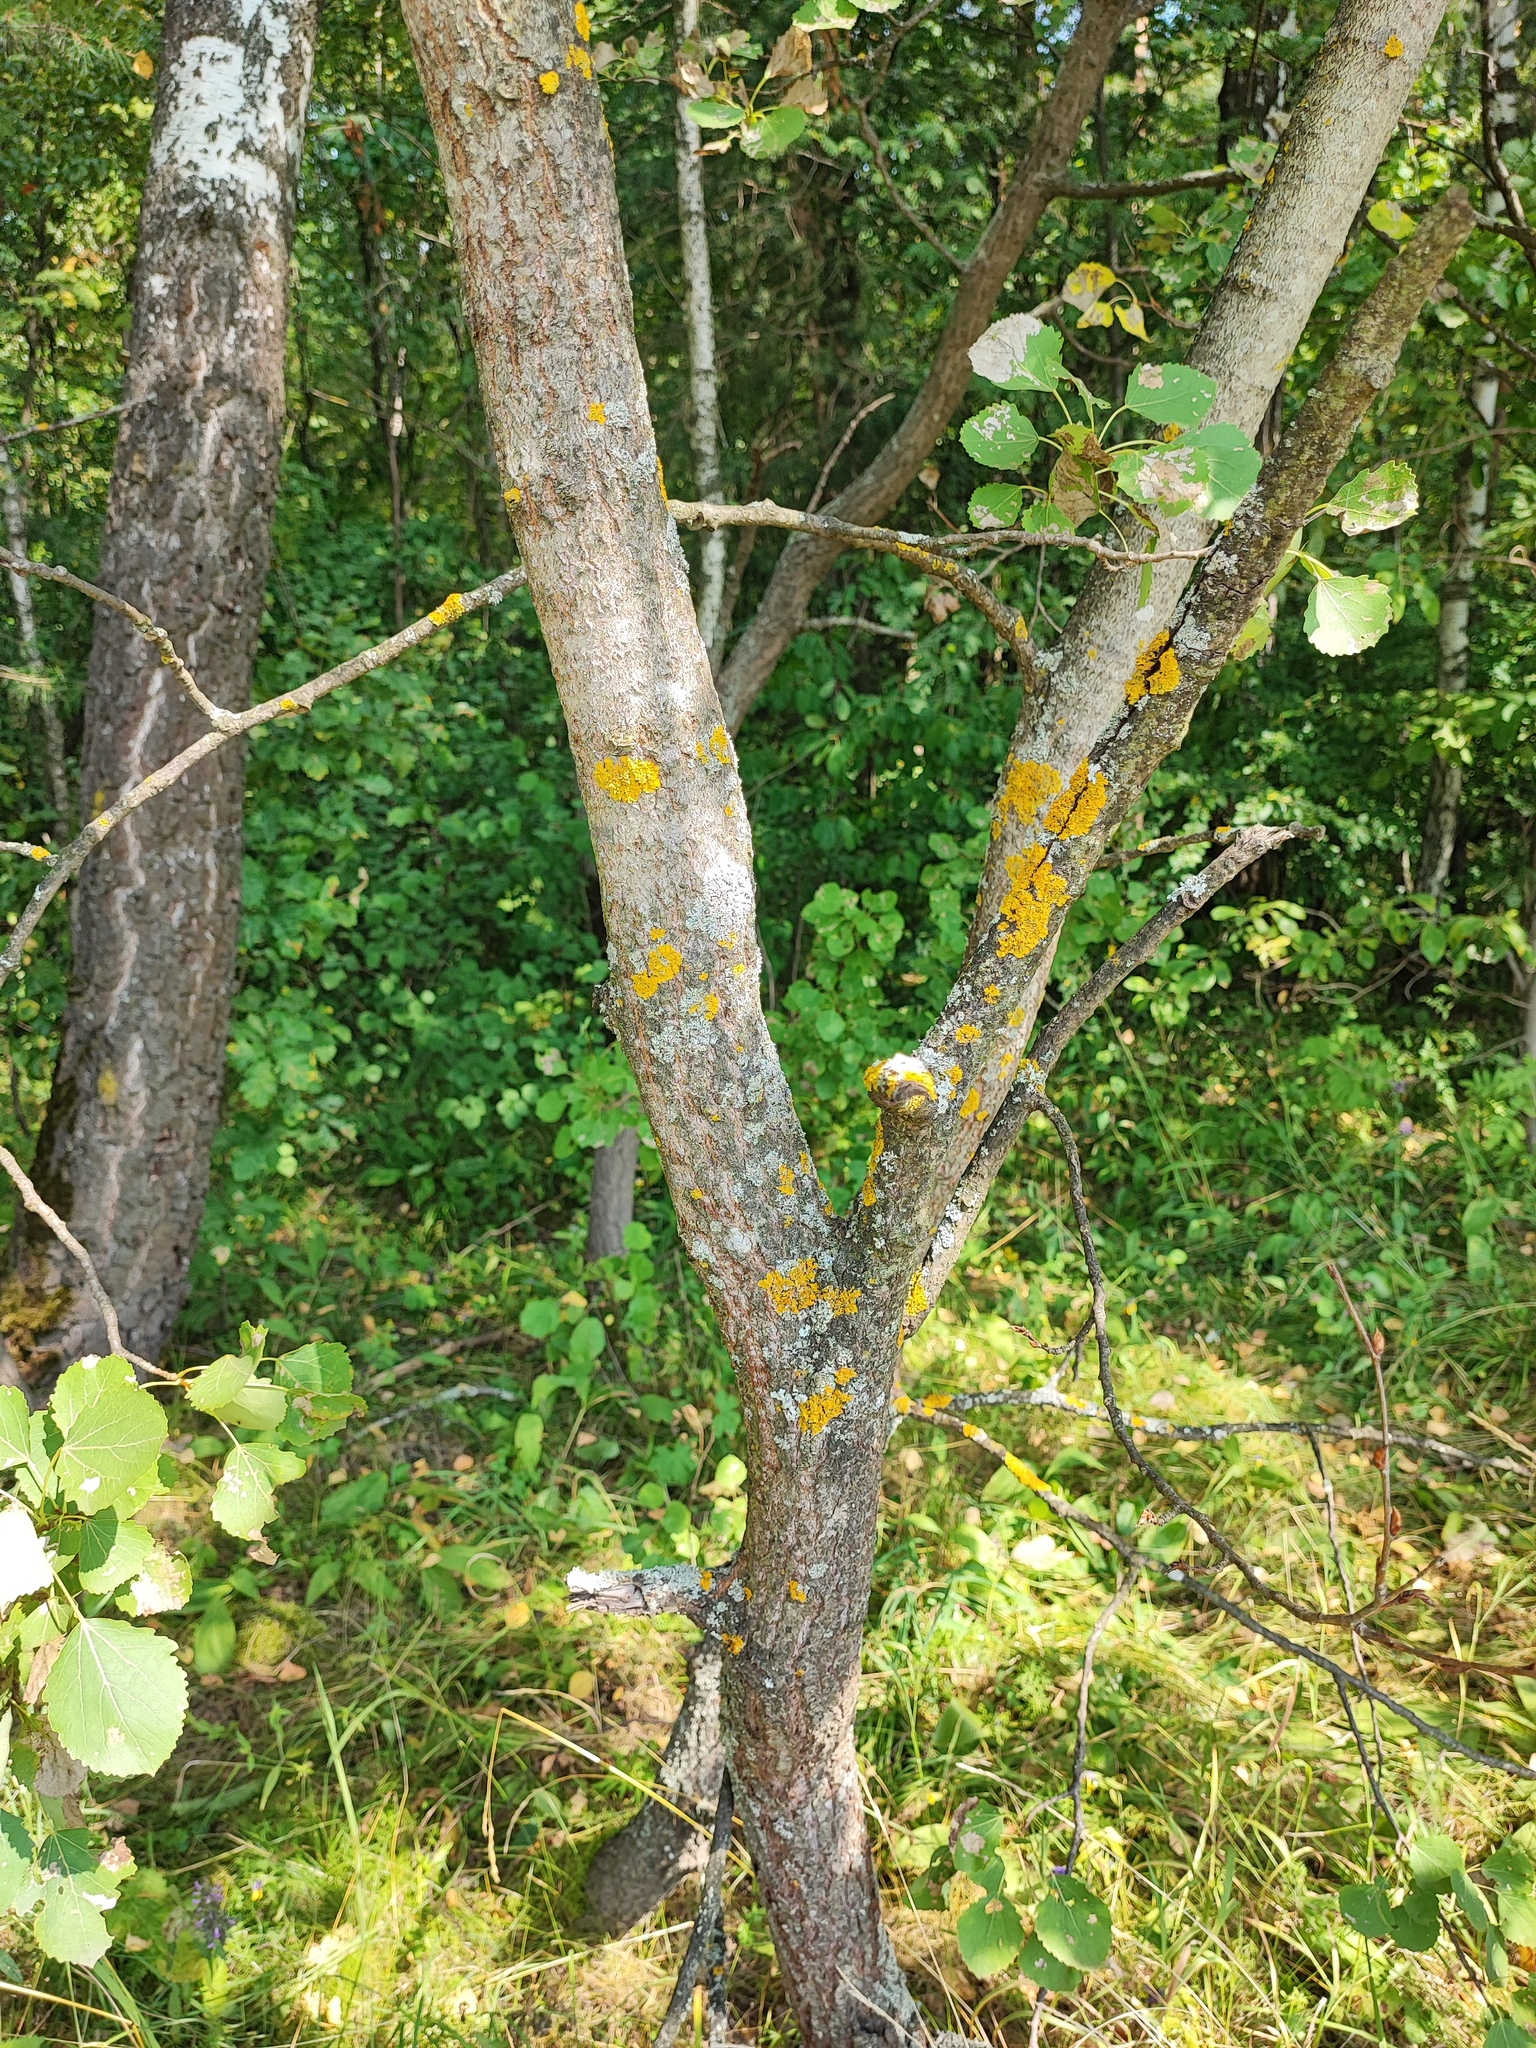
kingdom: Plantae
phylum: Tracheophyta
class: Magnoliopsida
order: Malpighiales
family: Salicaceae
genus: Populus
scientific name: Populus tremula
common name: European aspen
